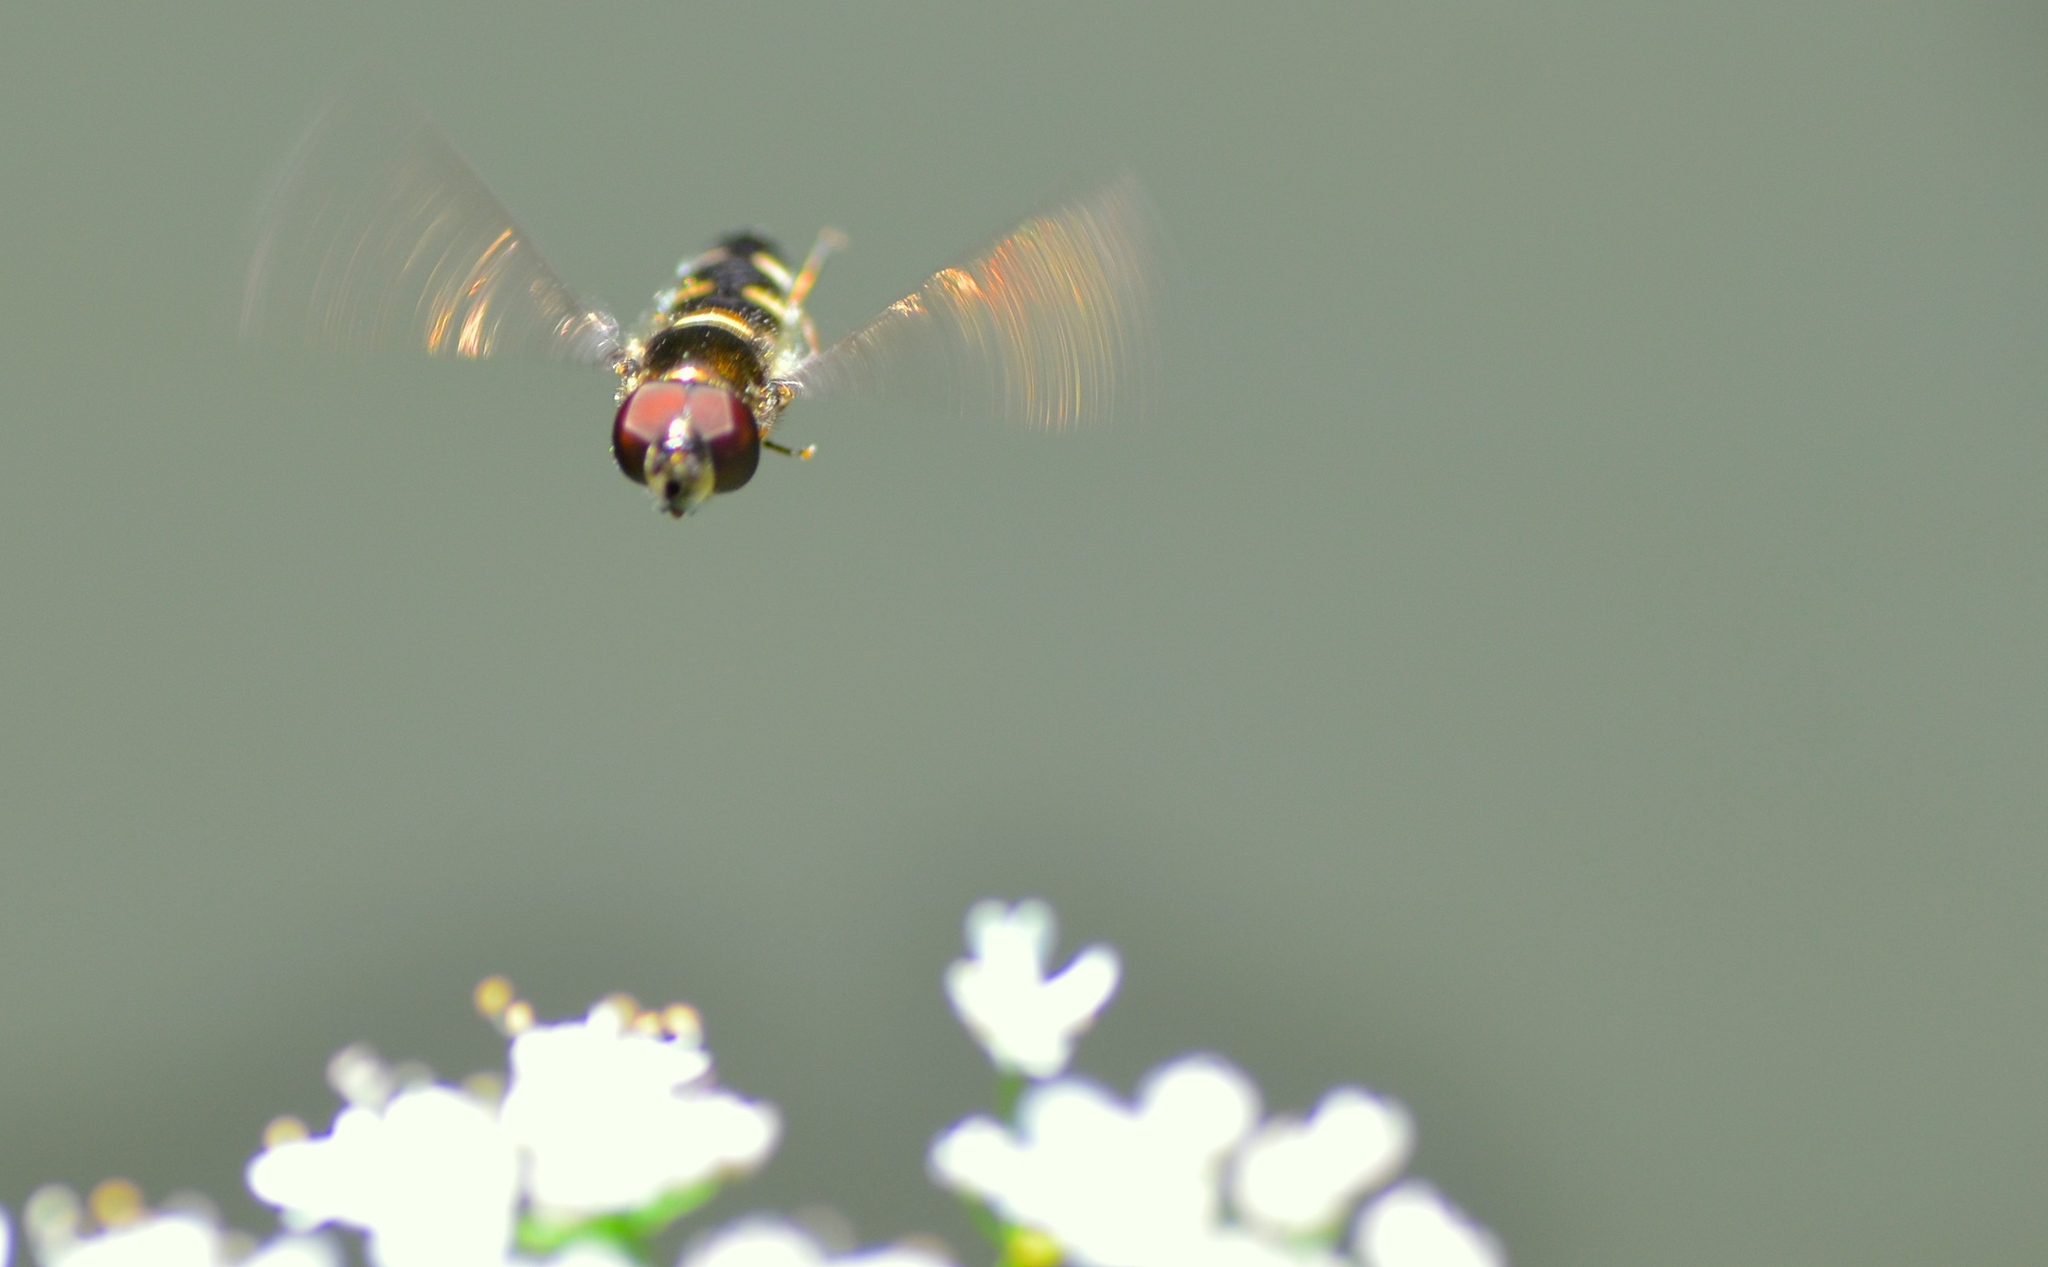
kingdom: Animalia
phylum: Arthropoda
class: Insecta
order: Diptera
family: Syrphidae
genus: Melangyna
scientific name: Melangyna novaezelandiae
